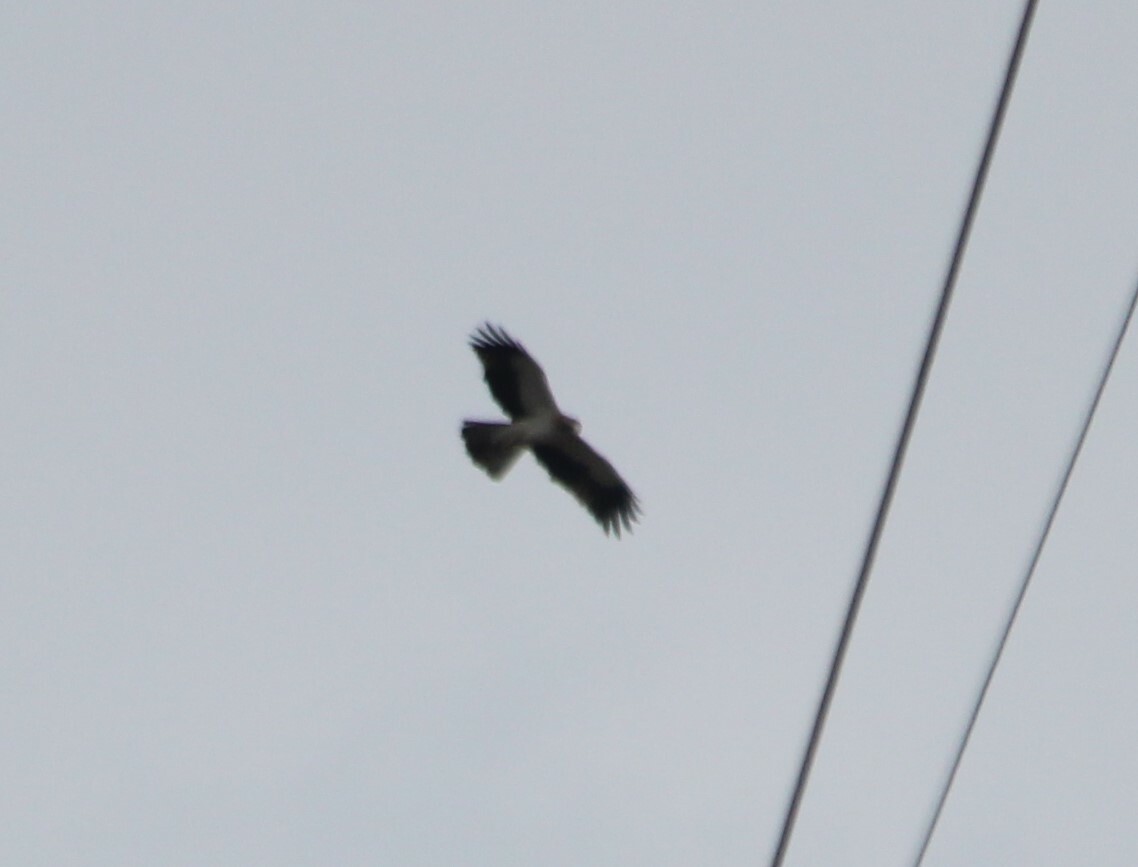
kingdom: Animalia
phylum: Chordata
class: Aves
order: Accipitriformes
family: Accipitridae
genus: Hieraaetus
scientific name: Hieraaetus pennatus
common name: Booted eagle
